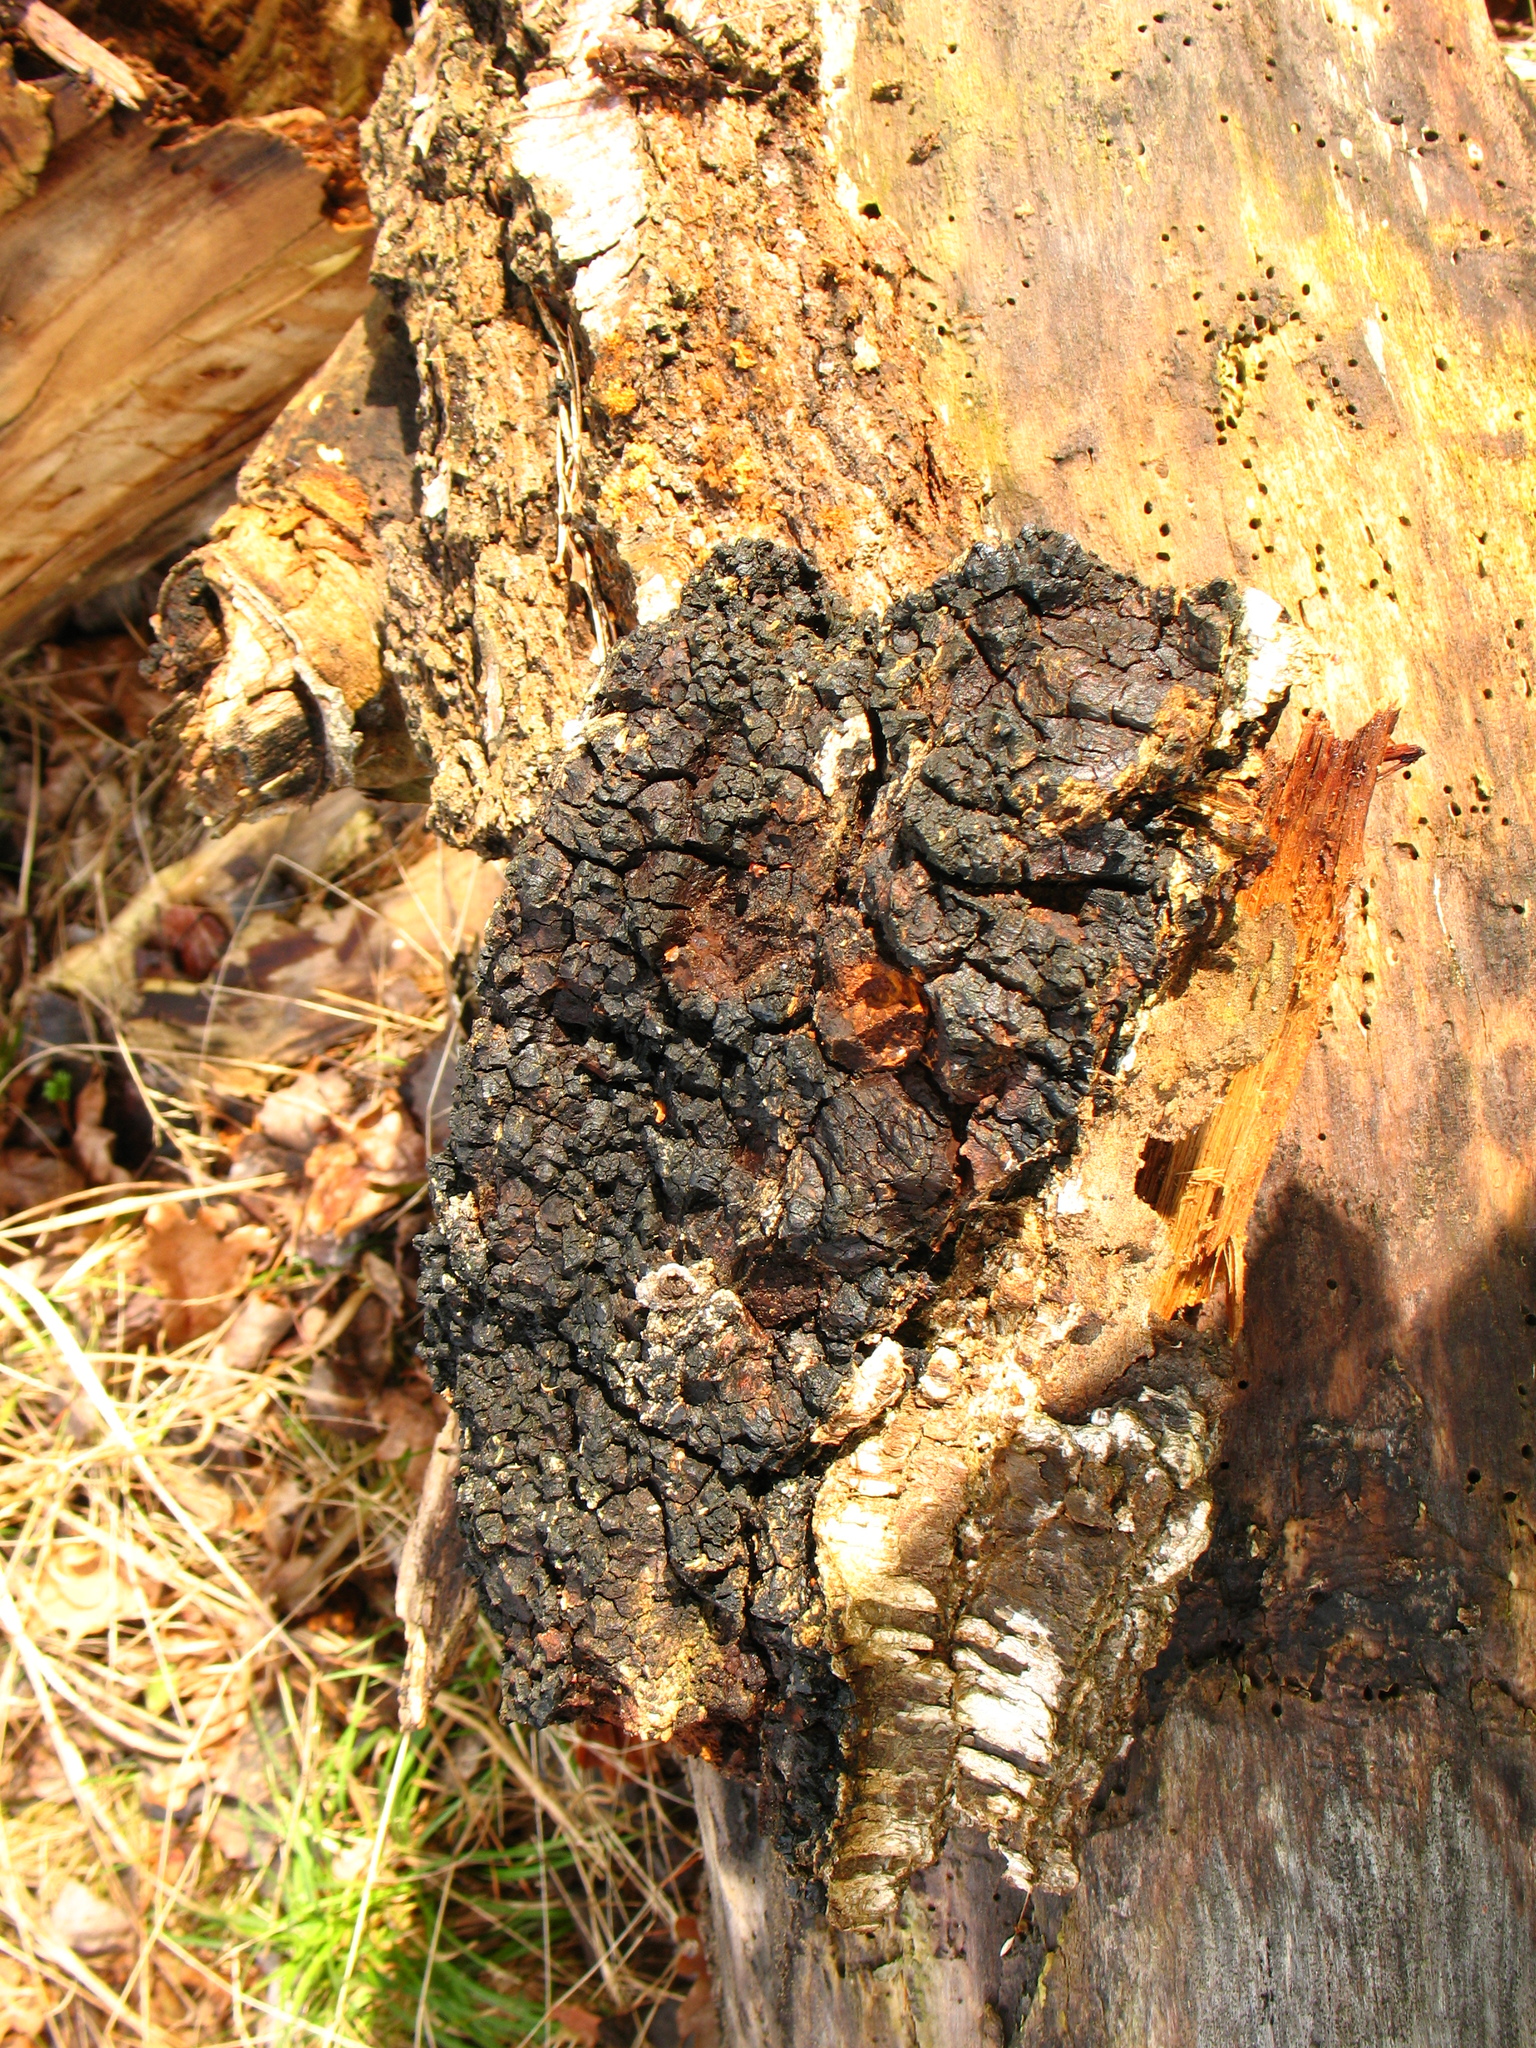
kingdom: Fungi
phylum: Basidiomycota
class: Agaricomycetes
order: Hymenochaetales
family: Hymenochaetaceae
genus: Inonotus
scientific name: Inonotus obliquus
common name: Chaga
